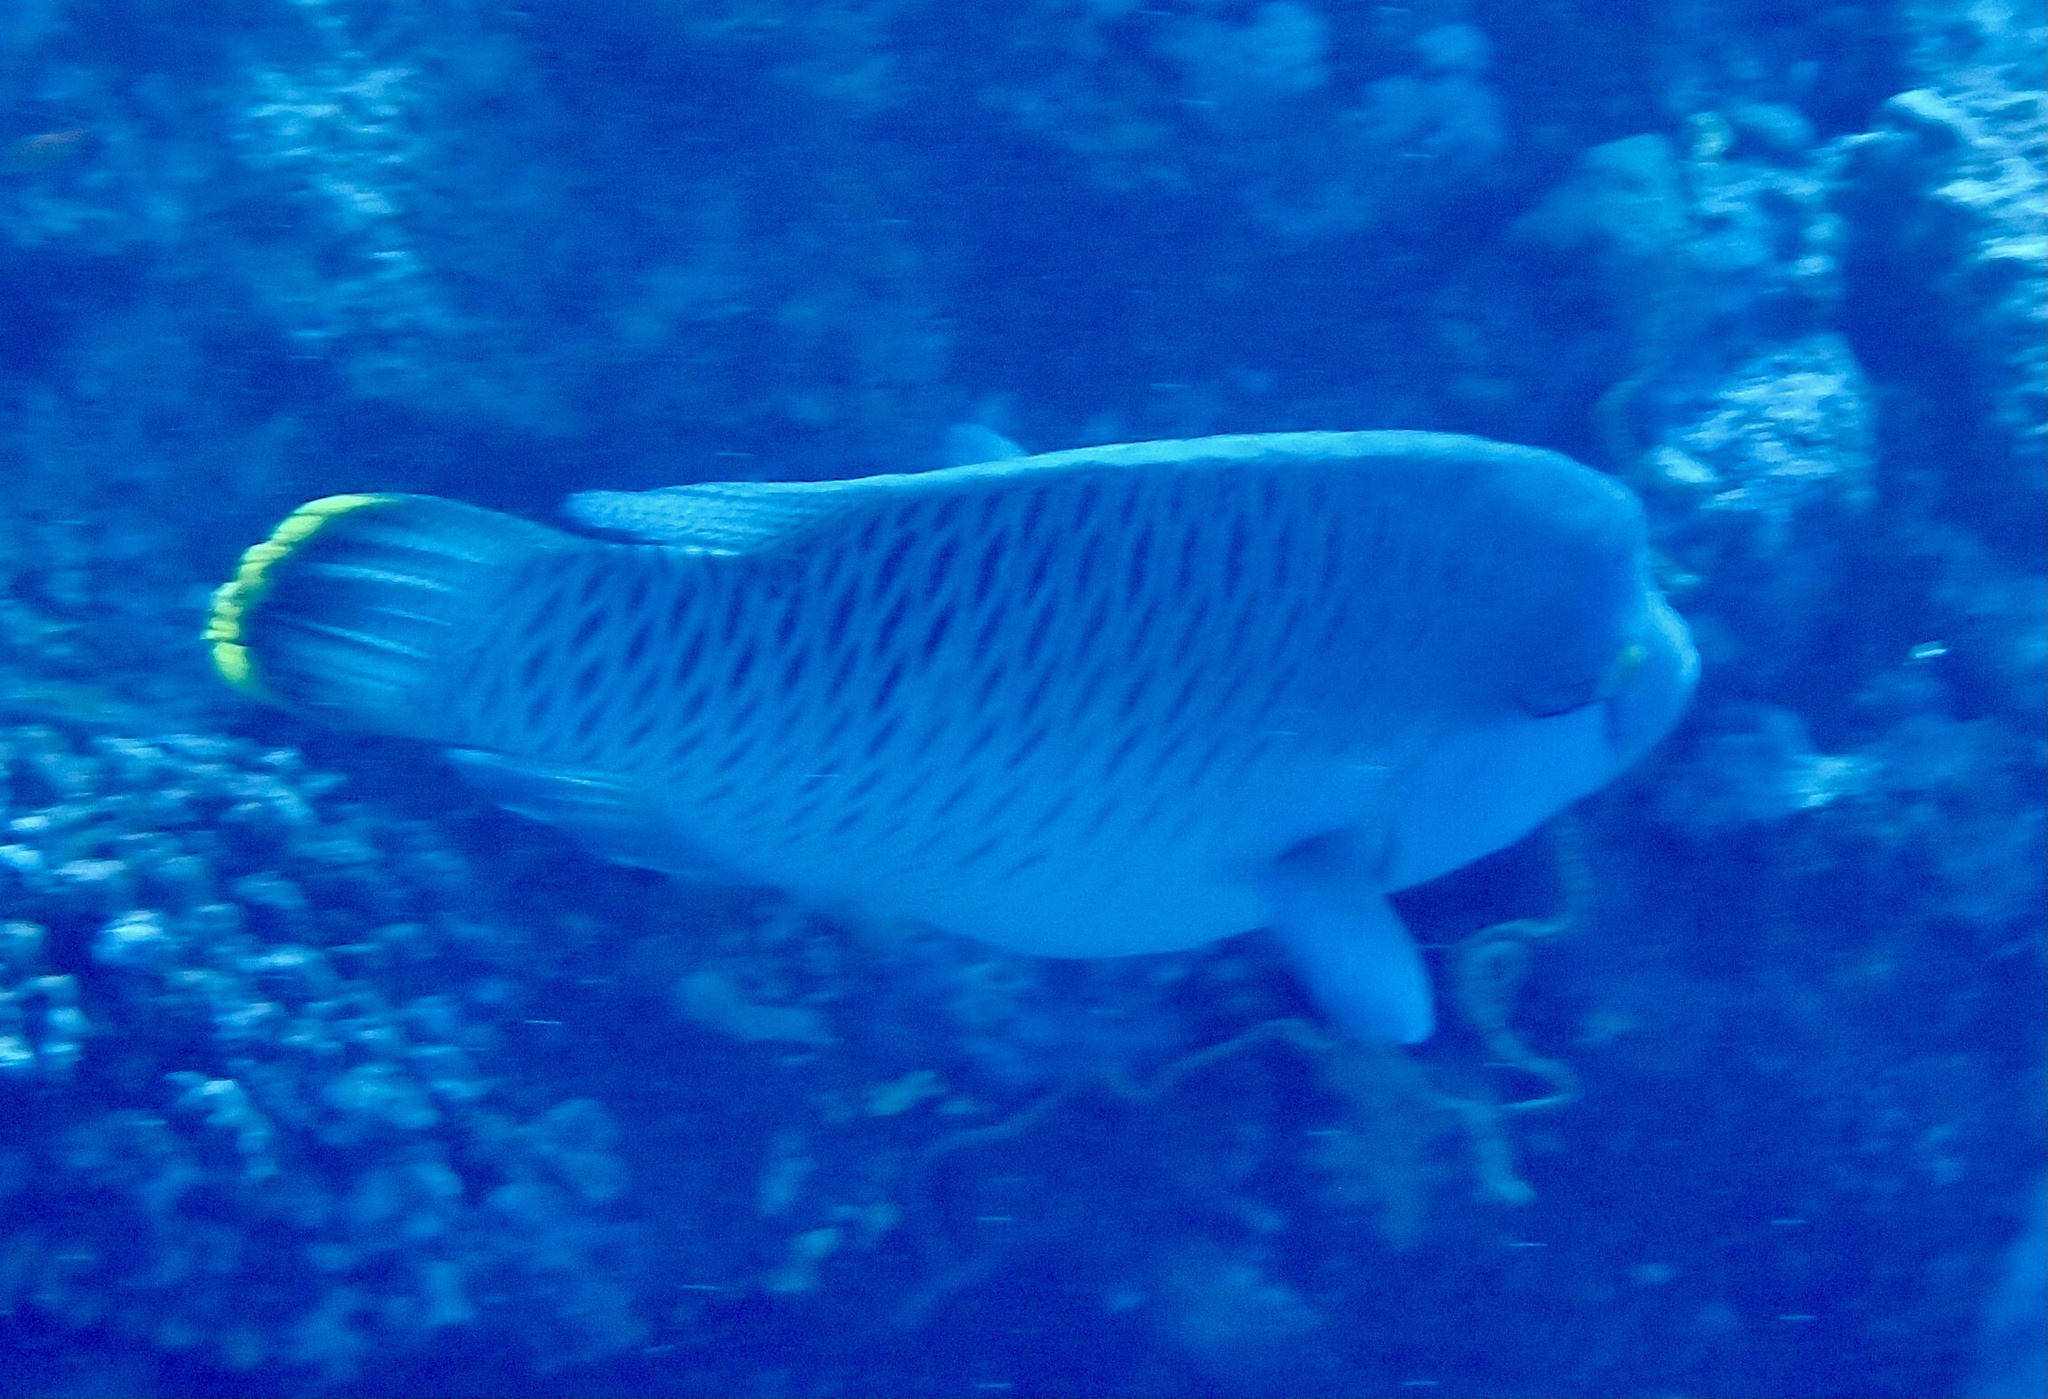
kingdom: Animalia
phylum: Chordata
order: Perciformes
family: Labridae
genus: Cheilinus
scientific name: Cheilinus undulatus
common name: Humphead wrasse
